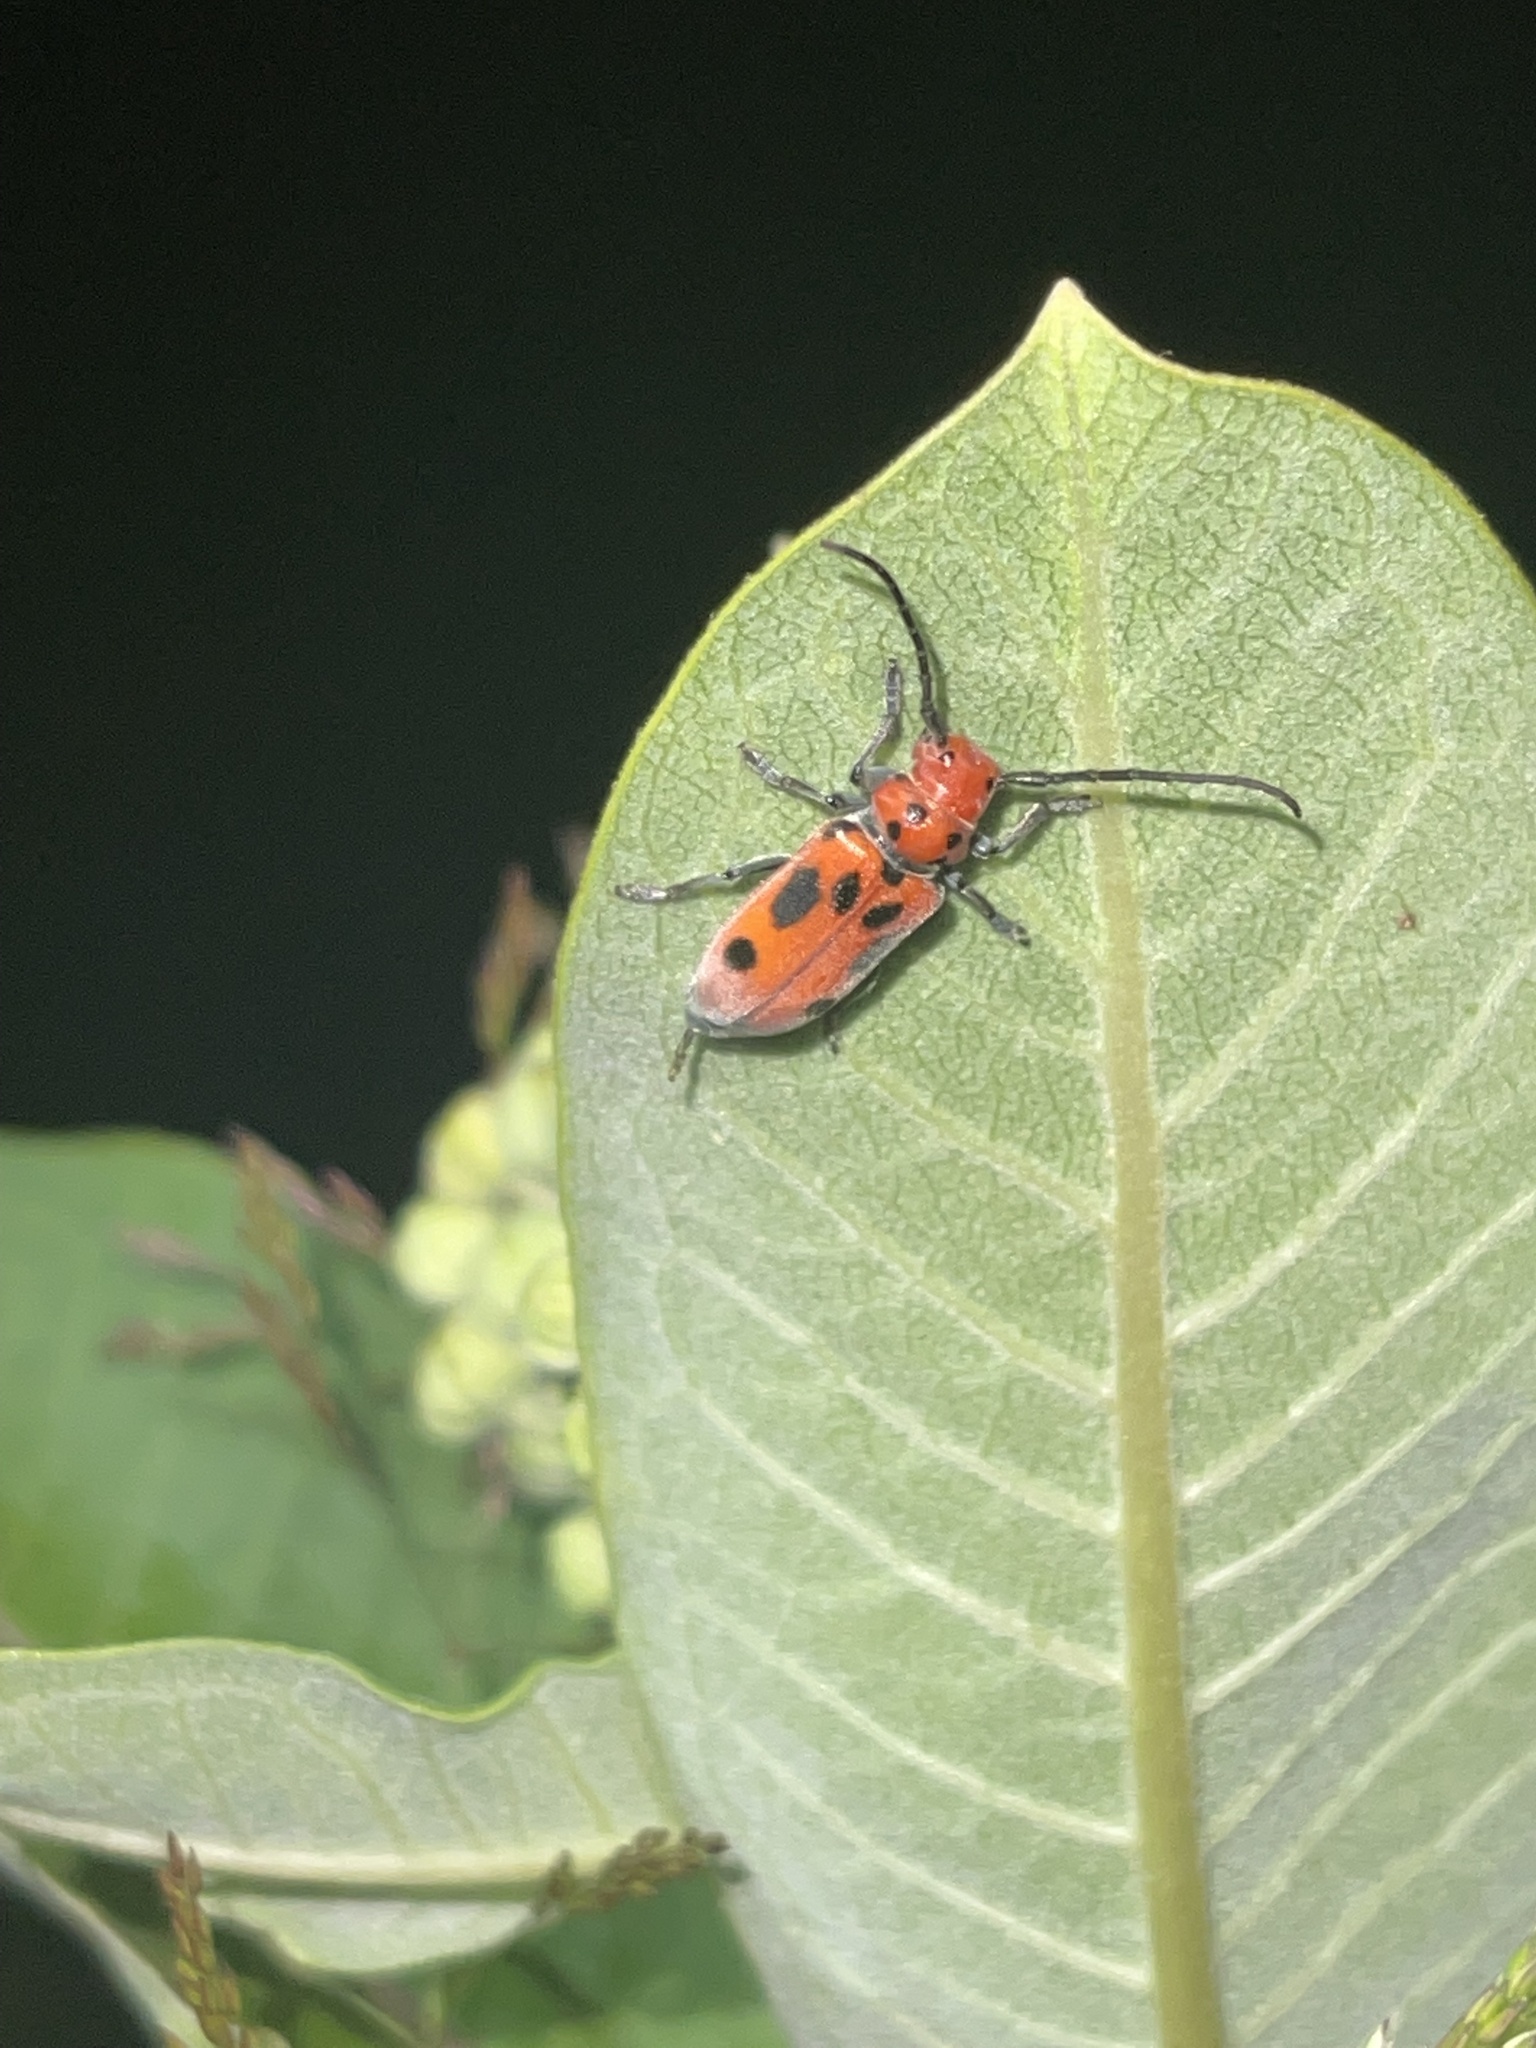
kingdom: Animalia
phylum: Arthropoda
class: Insecta
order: Coleoptera
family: Cerambycidae
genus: Tetraopes
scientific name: Tetraopes tetrophthalmus
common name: Red milkweed beetle
